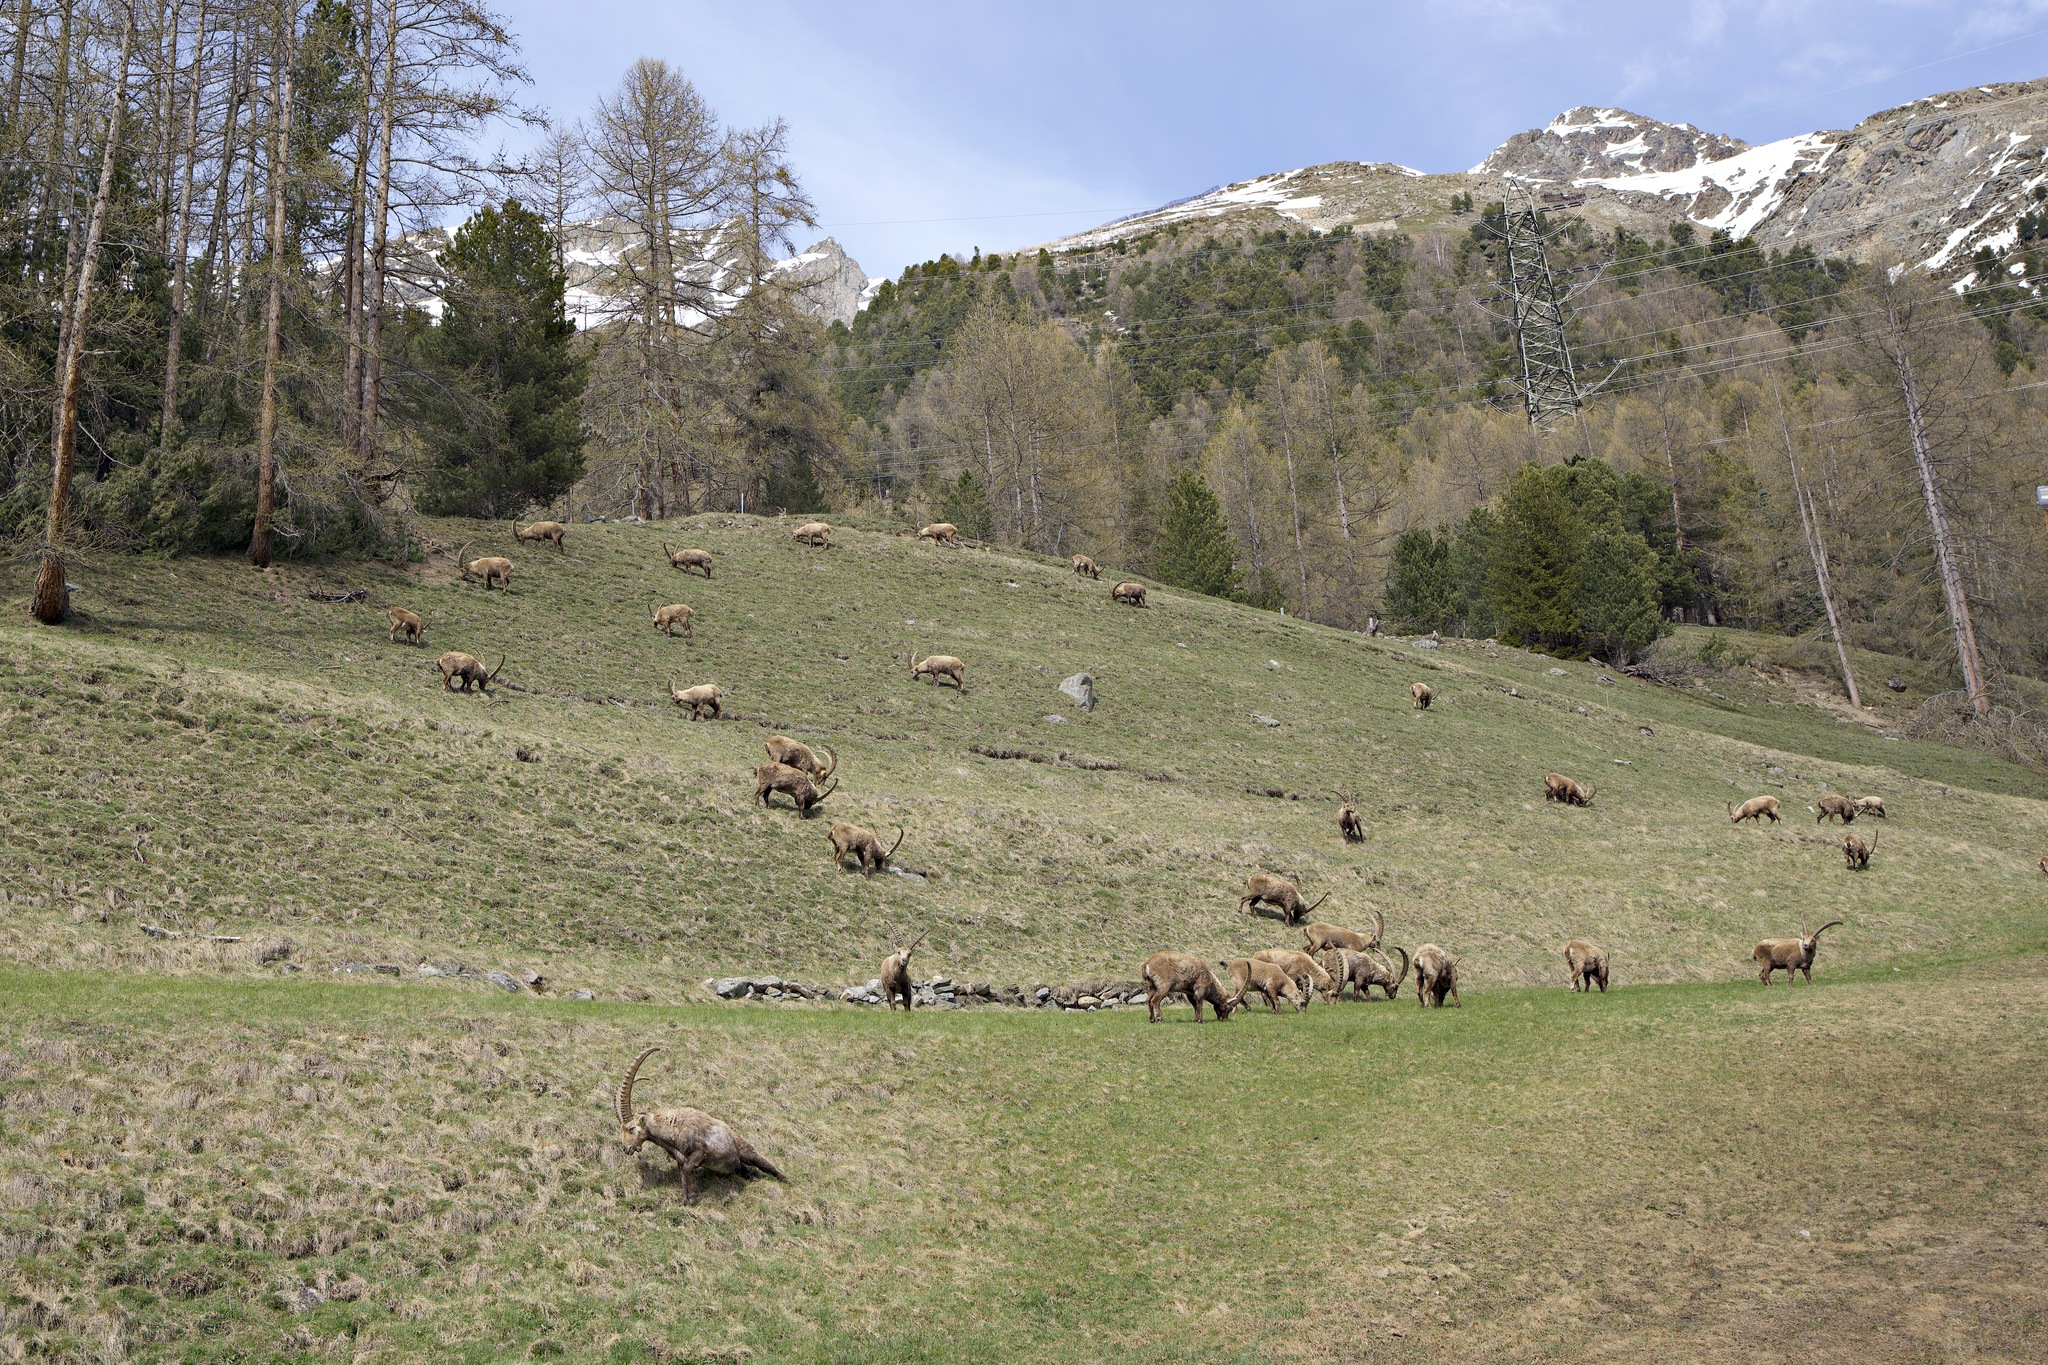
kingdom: Animalia
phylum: Chordata
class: Mammalia
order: Artiodactyla
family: Bovidae
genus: Capra
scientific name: Capra ibex
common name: Alpine ibex
